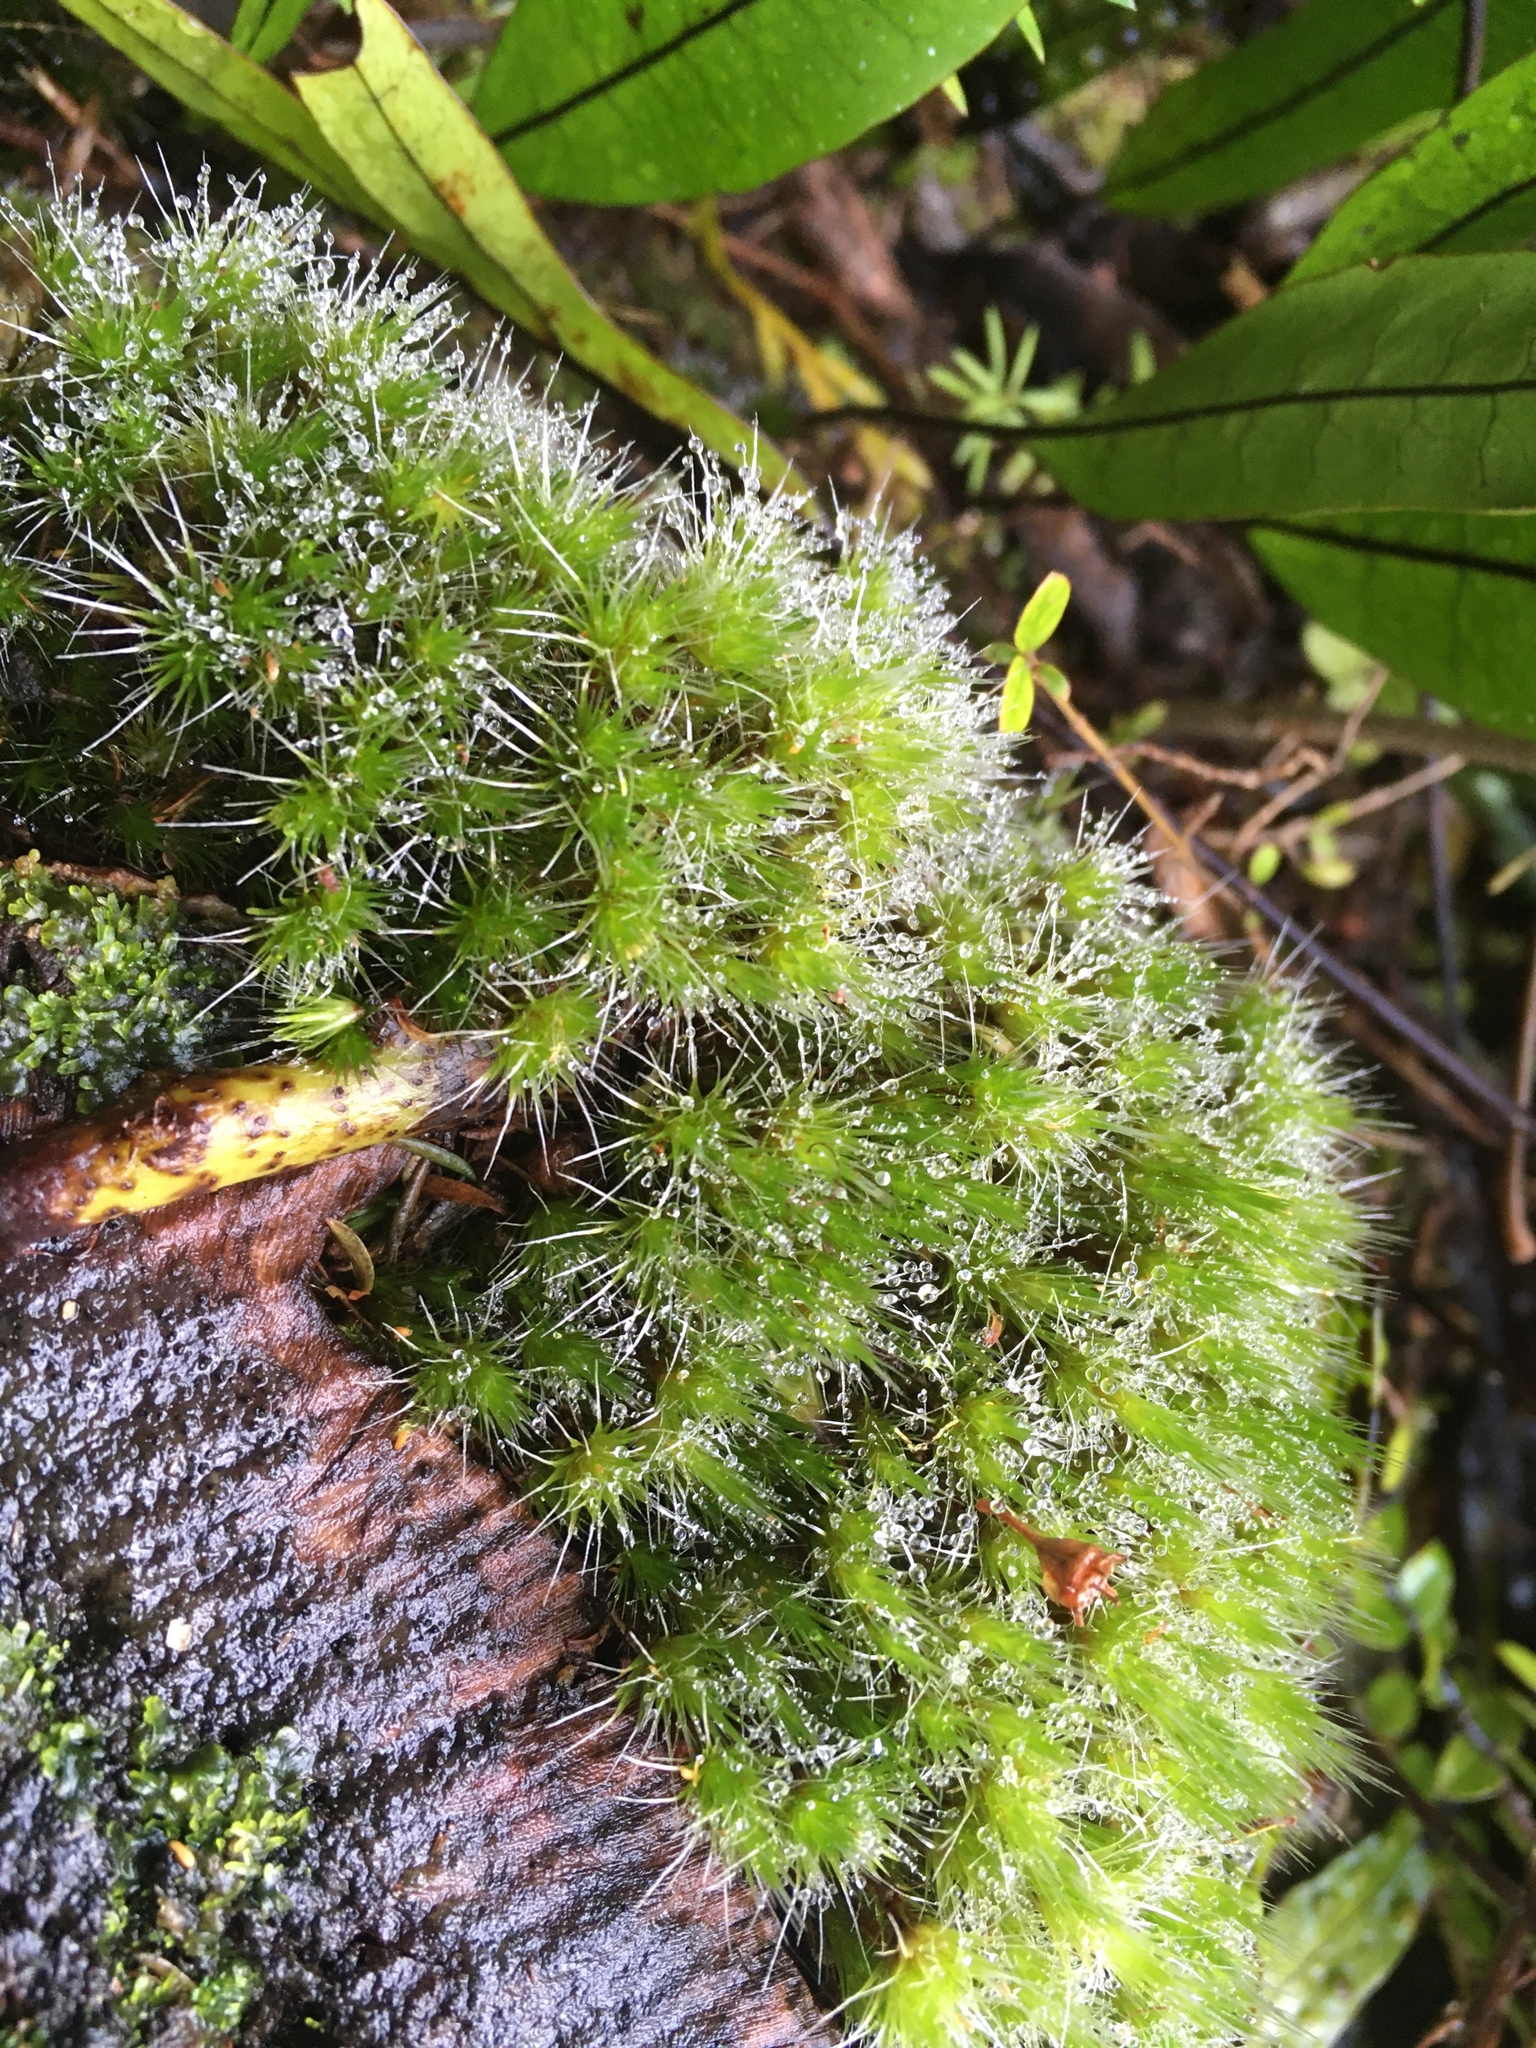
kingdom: Plantae
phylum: Bryophyta
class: Bryopsida
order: Dicranales
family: Leucobryaceae
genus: Campylopus
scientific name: Campylopus introflexus
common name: Heath star moss
